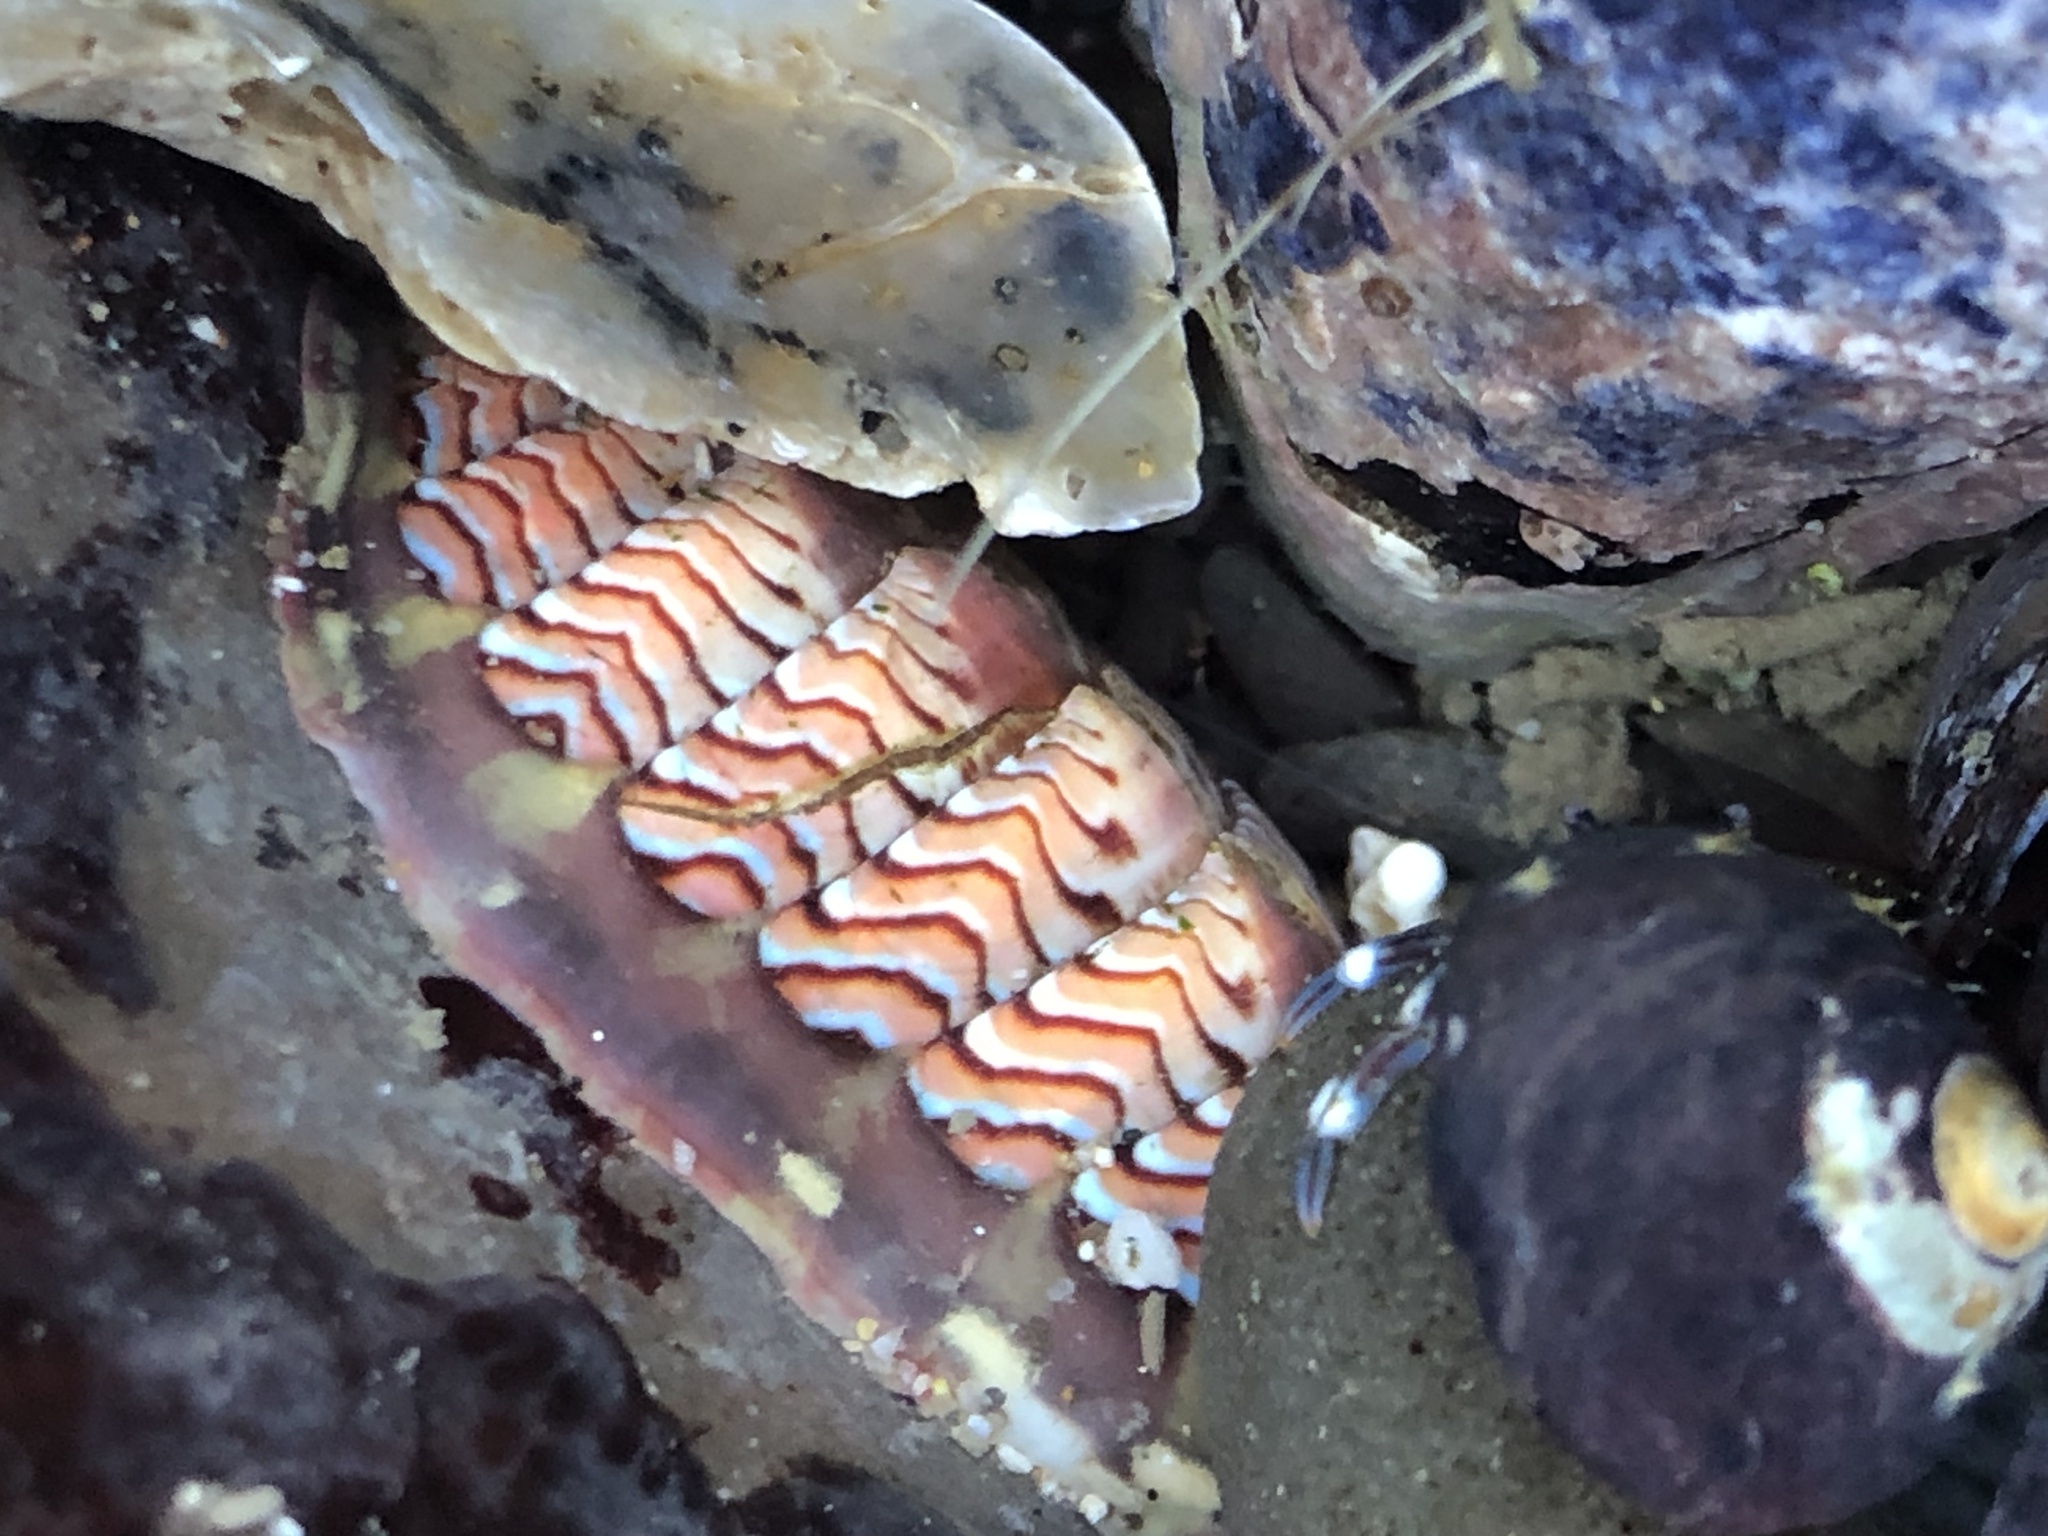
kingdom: Animalia
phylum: Mollusca
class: Polyplacophora
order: Chitonida
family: Tonicellidae
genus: Tonicella
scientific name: Tonicella lokii
